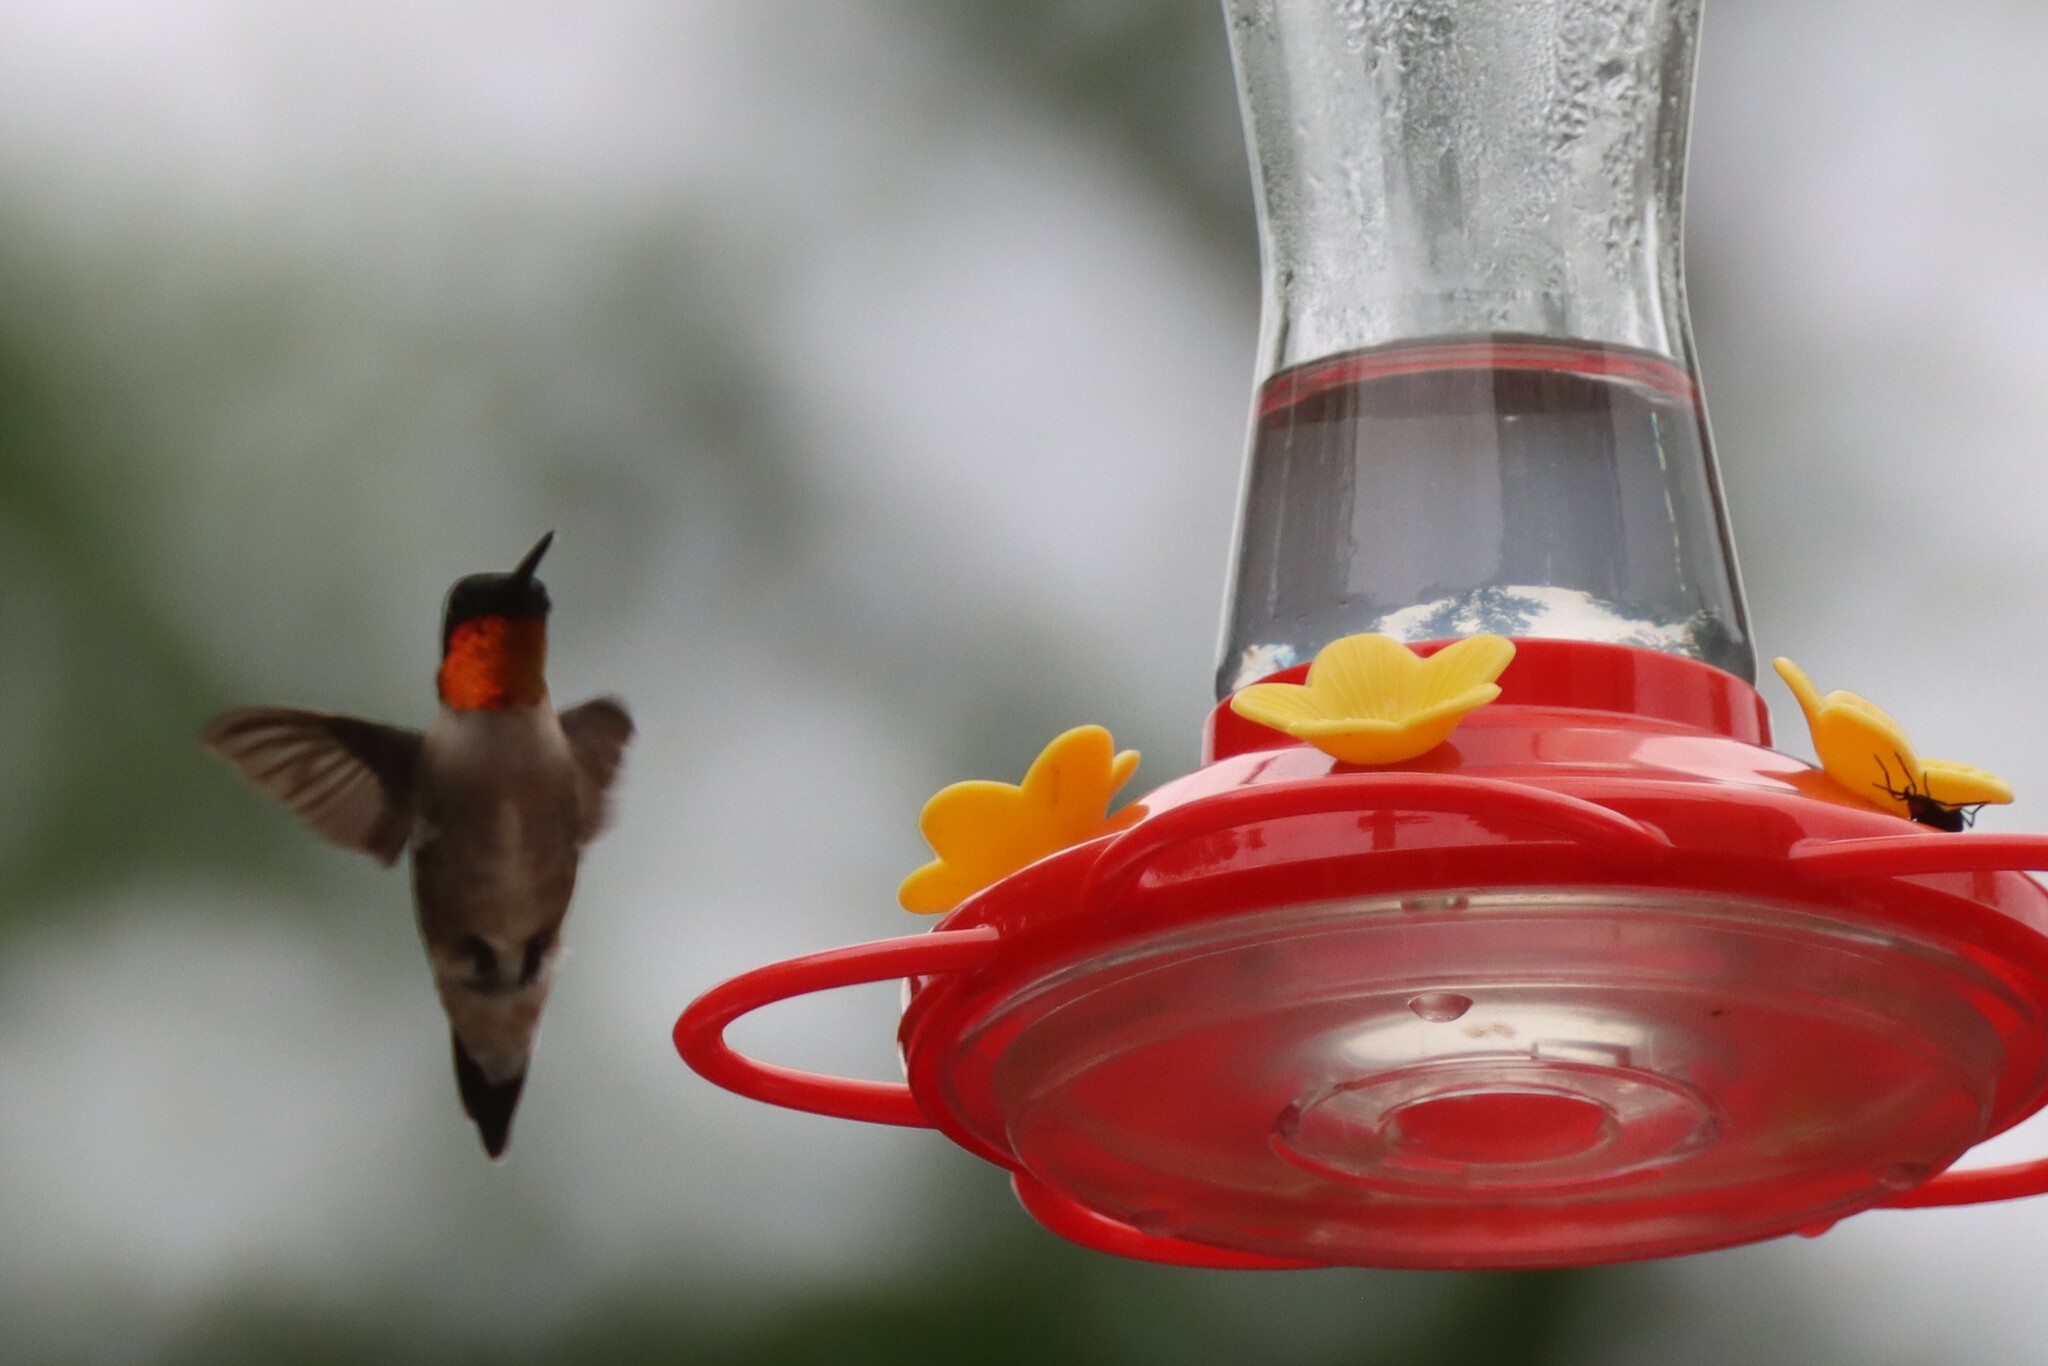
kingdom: Animalia
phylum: Chordata
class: Aves
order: Apodiformes
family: Trochilidae
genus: Archilochus
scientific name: Archilochus colubris
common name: Ruby-throated hummingbird
